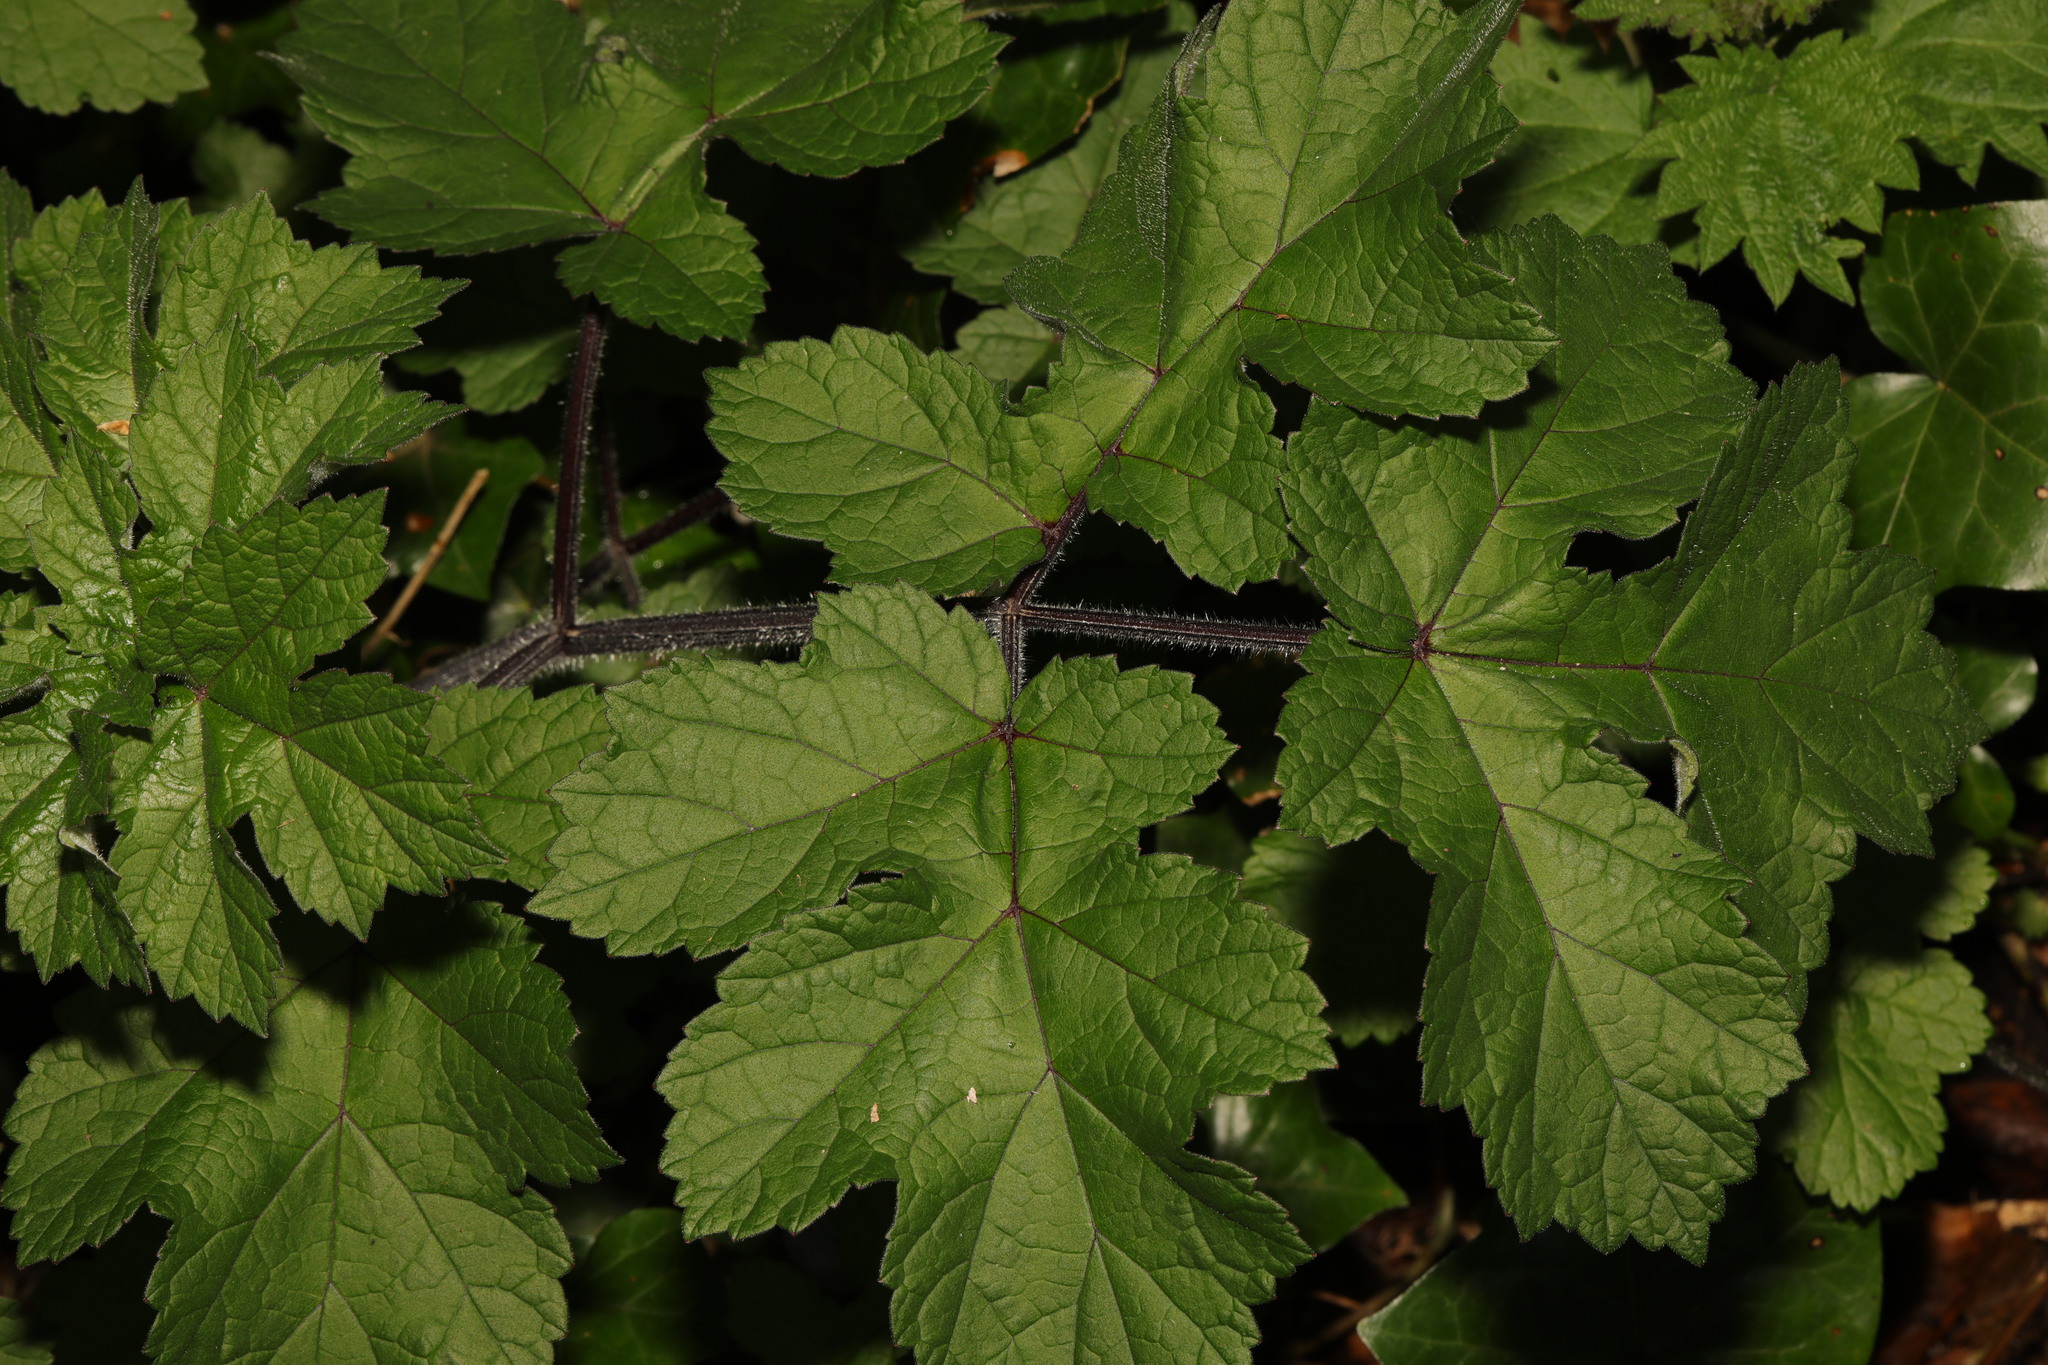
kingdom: Plantae
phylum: Tracheophyta
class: Magnoliopsida
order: Apiales
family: Apiaceae
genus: Heracleum
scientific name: Heracleum sphondylium
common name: Hogweed
